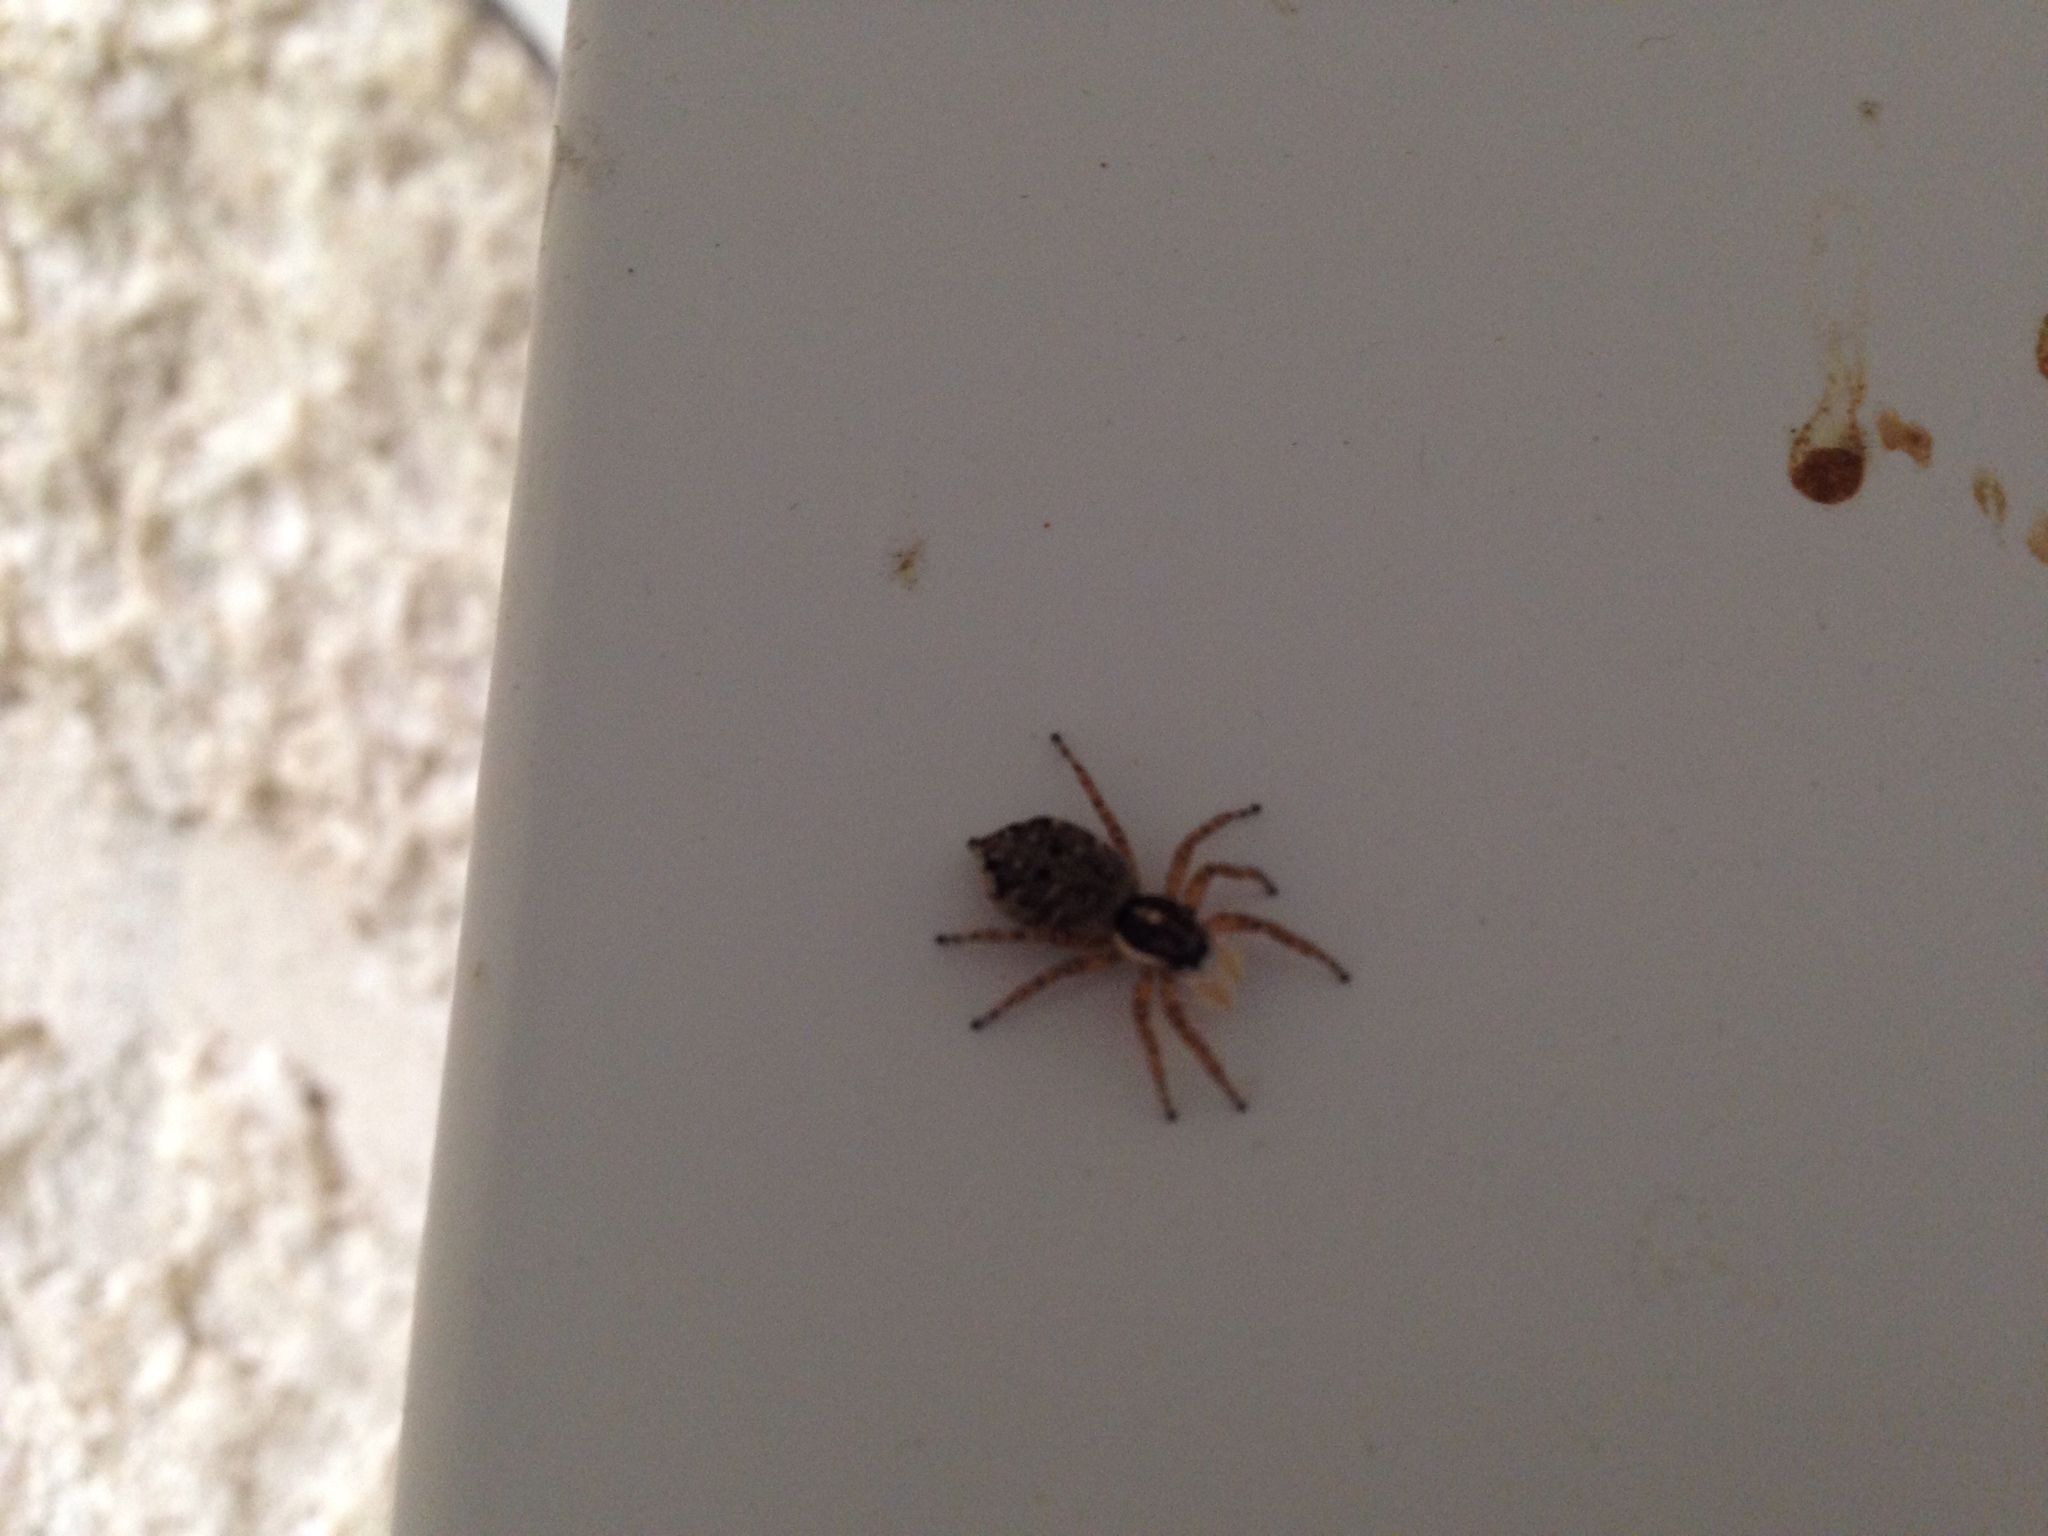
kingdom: Animalia
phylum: Arthropoda
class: Arachnida
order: Araneae
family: Salticidae
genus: Menemerus
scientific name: Menemerus semilimbatus
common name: Jumping spider
